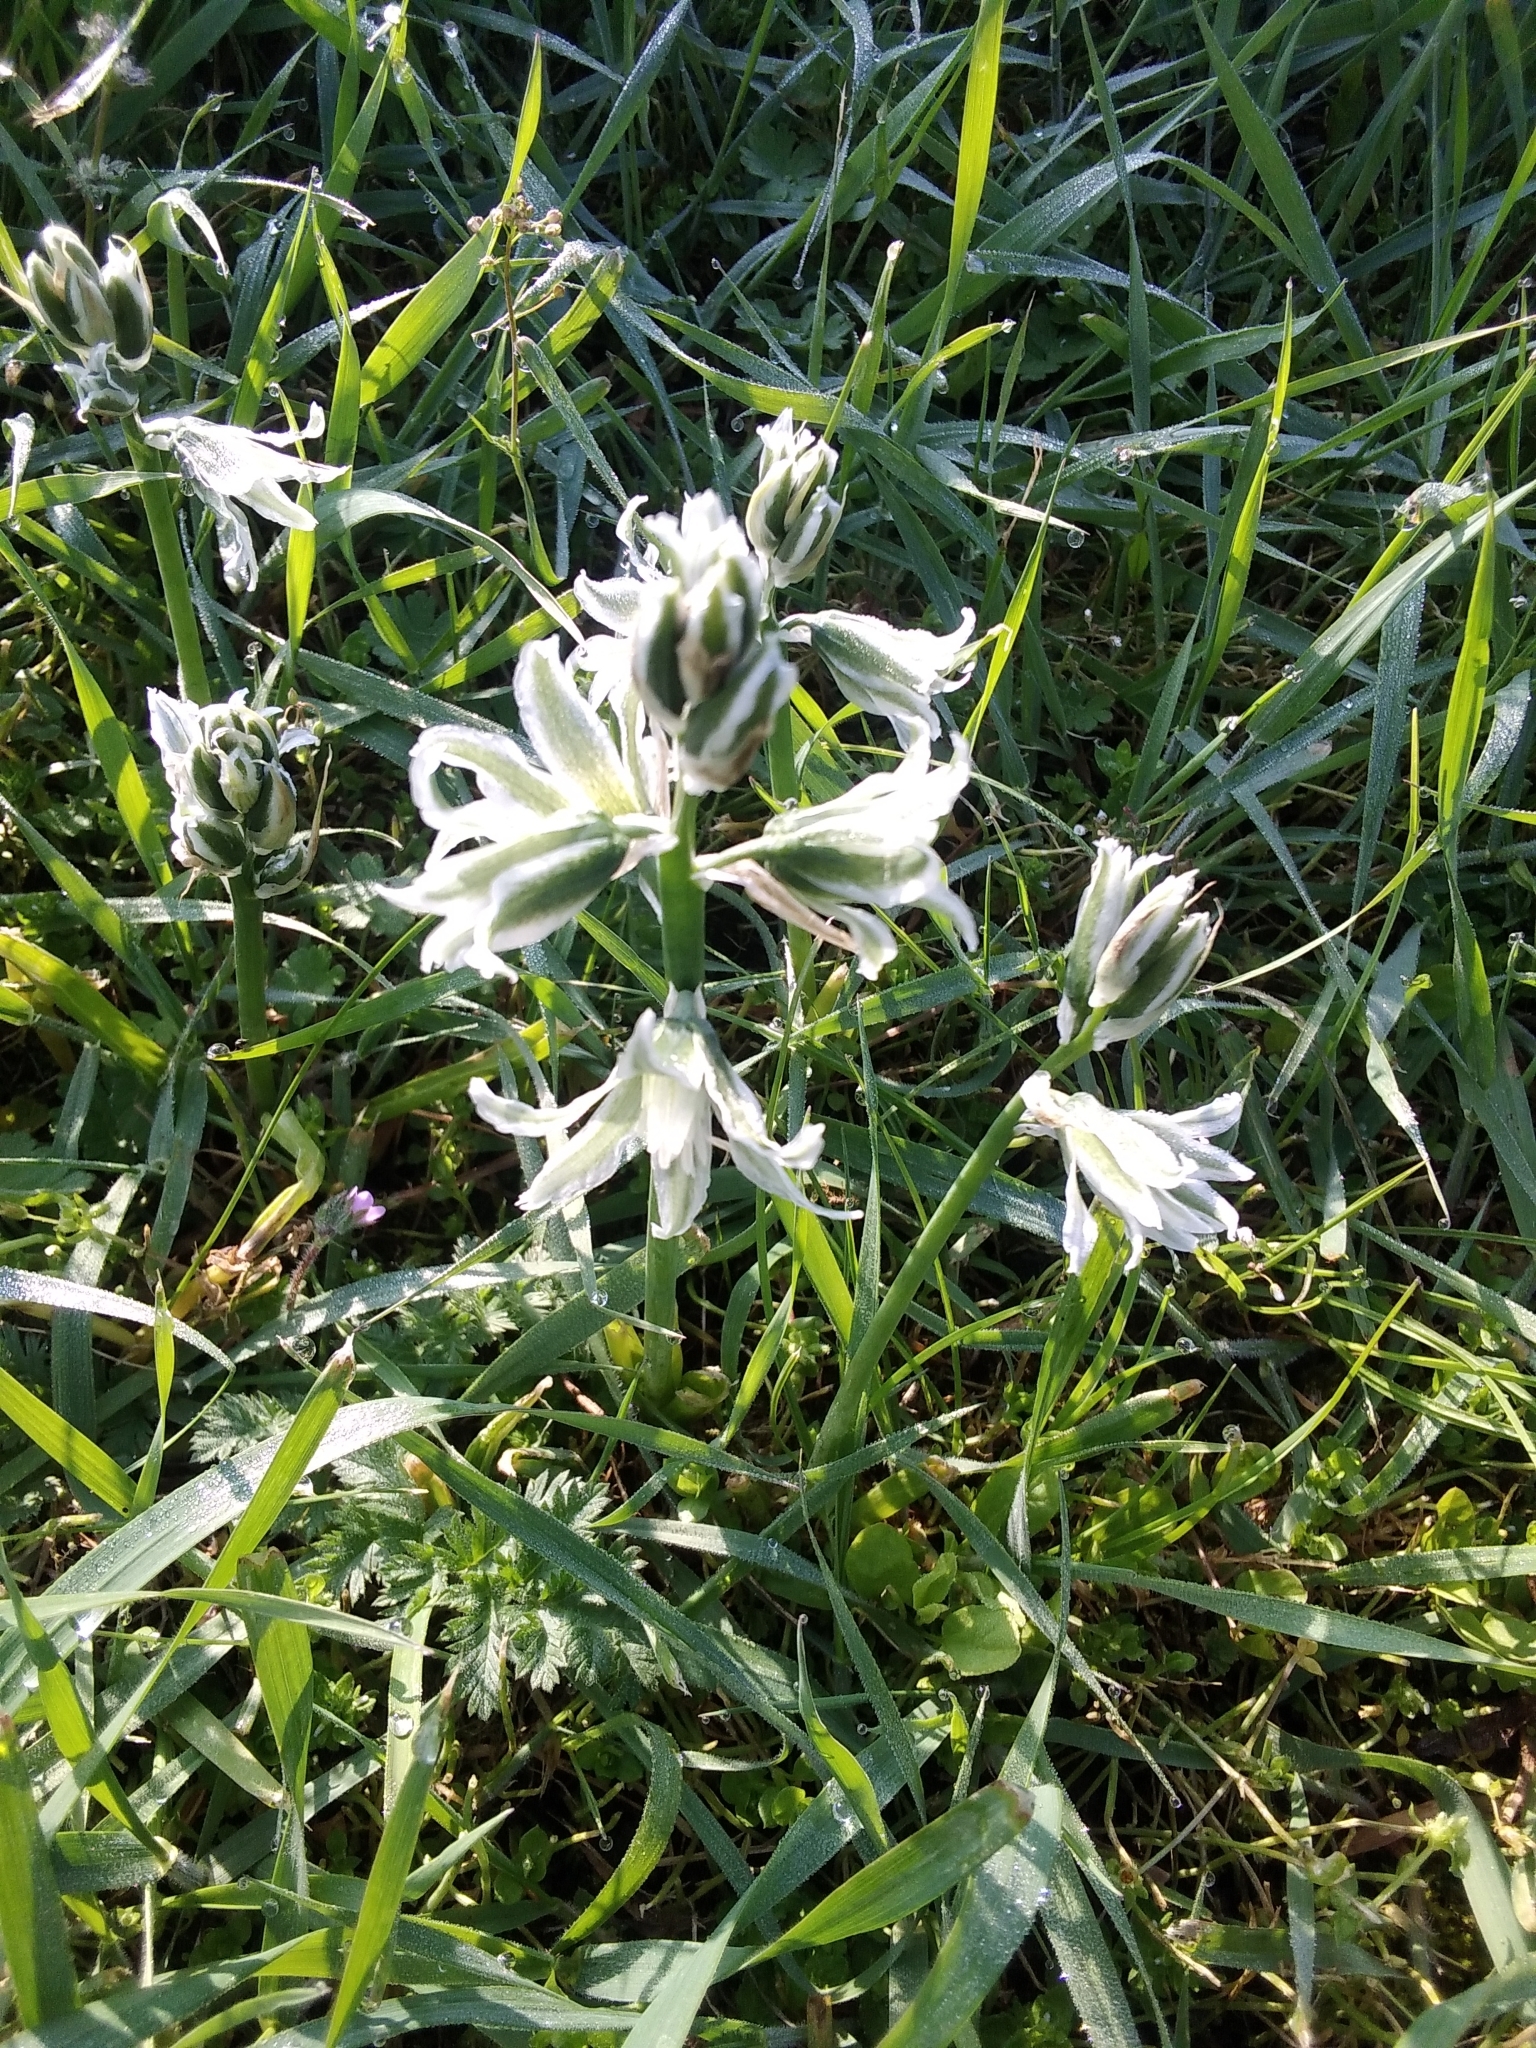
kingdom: Plantae
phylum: Tracheophyta
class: Liliopsida
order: Asparagales
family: Asparagaceae
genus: Ornithogalum
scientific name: Ornithogalum boucheanum
